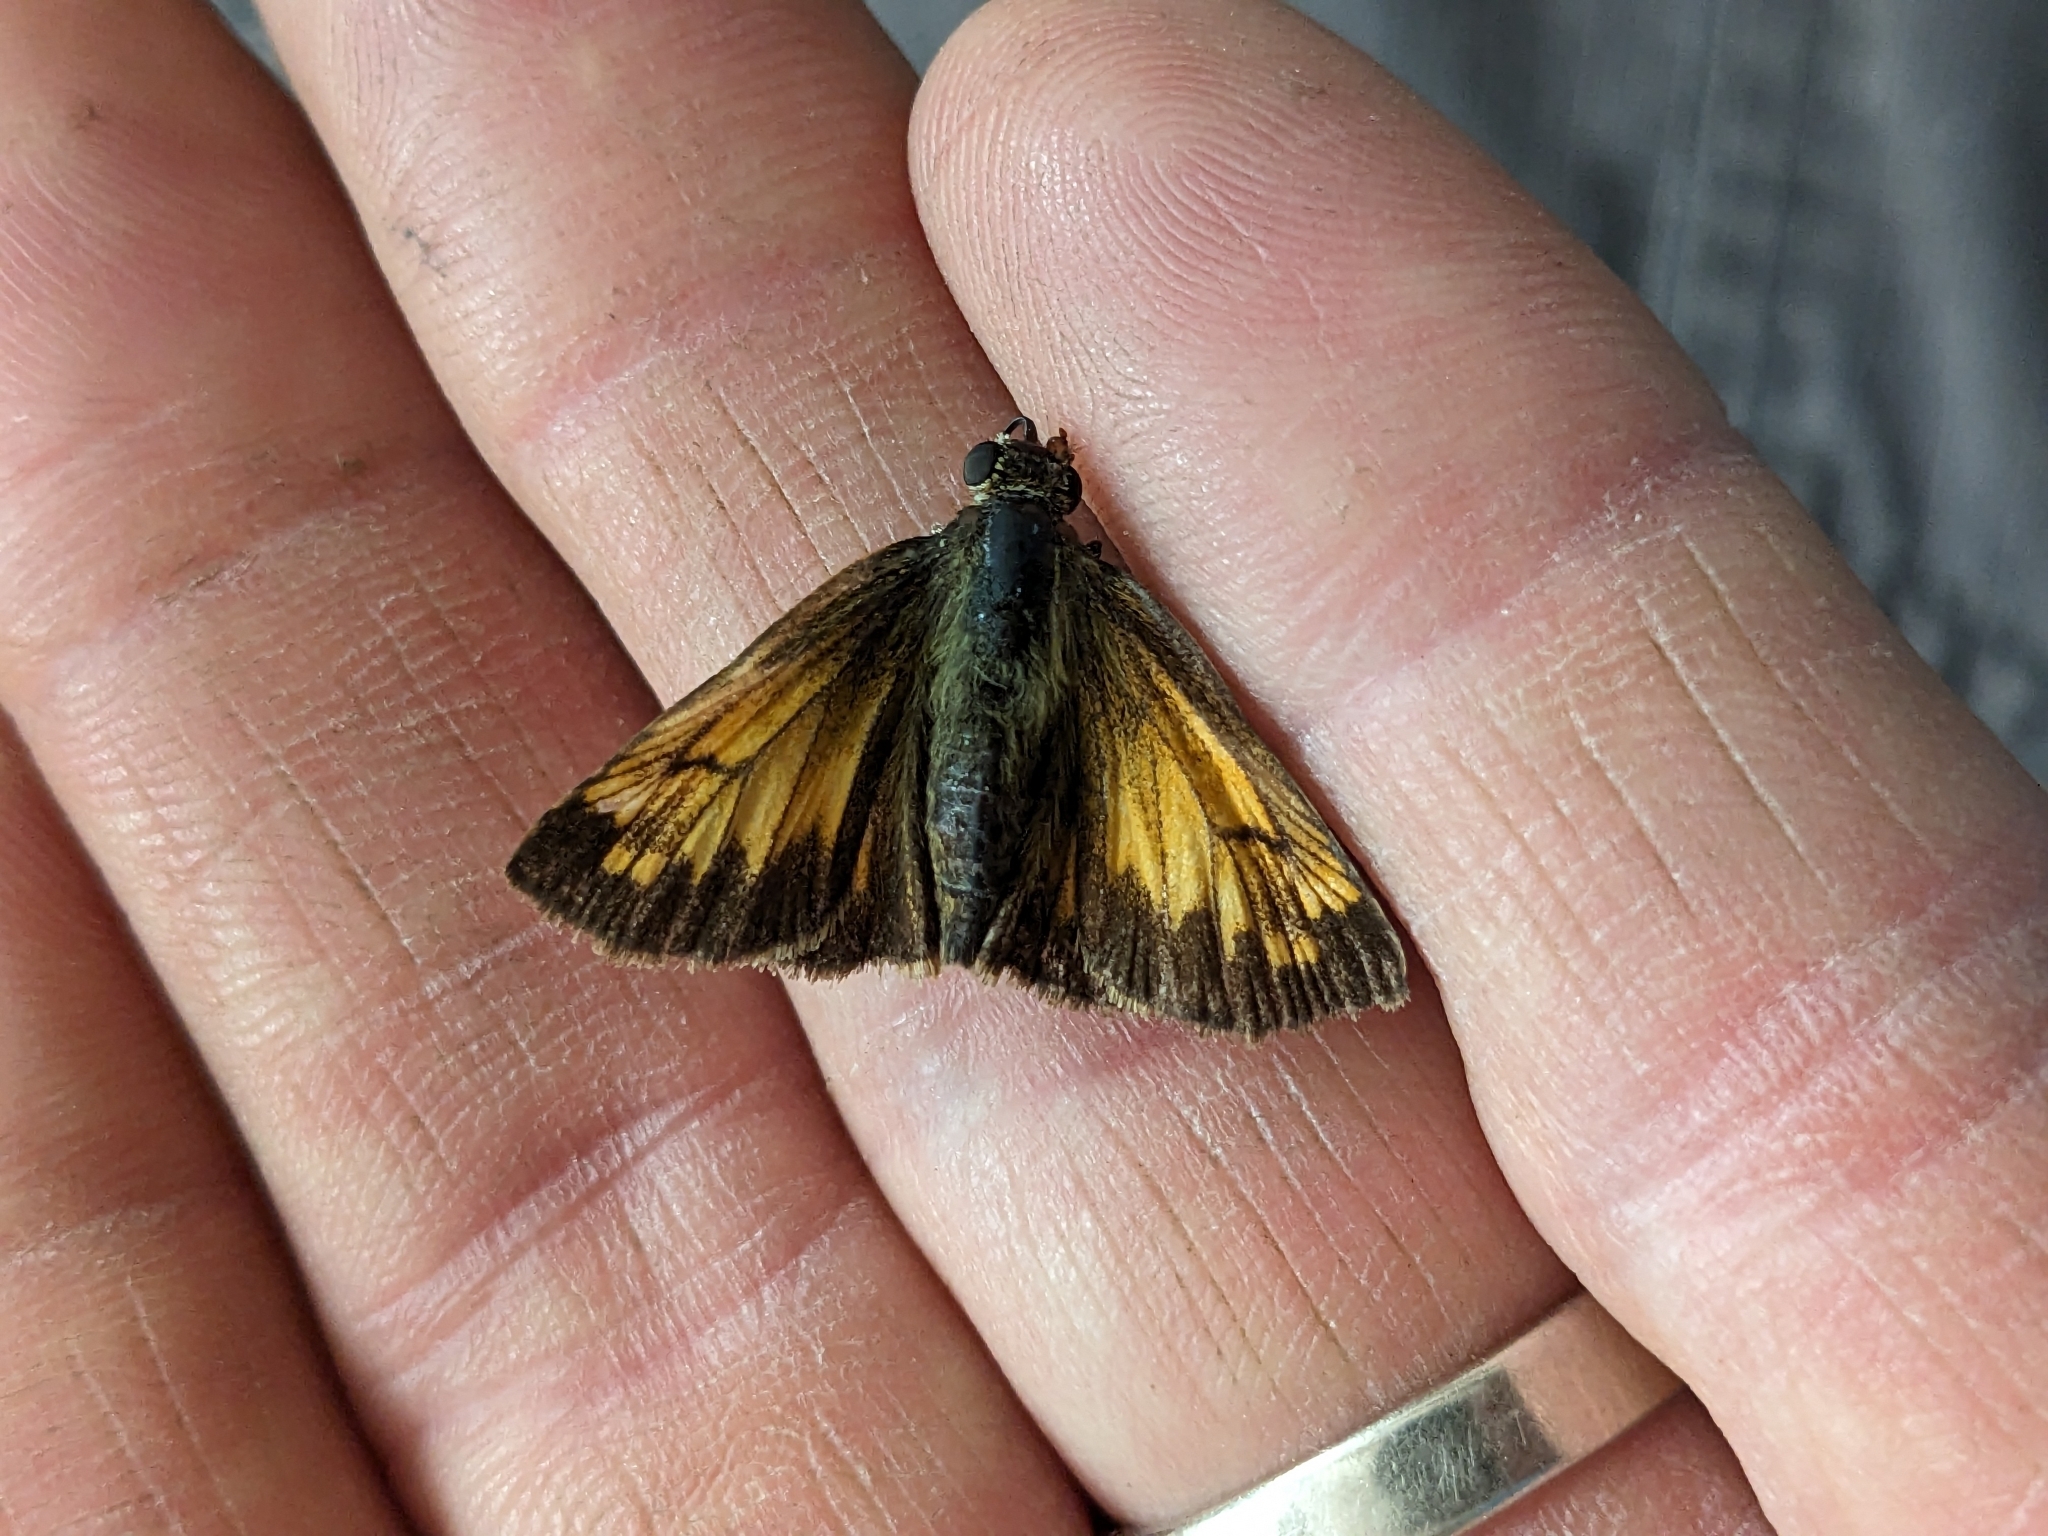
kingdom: Animalia
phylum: Arthropoda
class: Insecta
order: Lepidoptera
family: Hesperiidae
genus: Lon
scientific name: Lon hobomok
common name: Hobomok skipper
